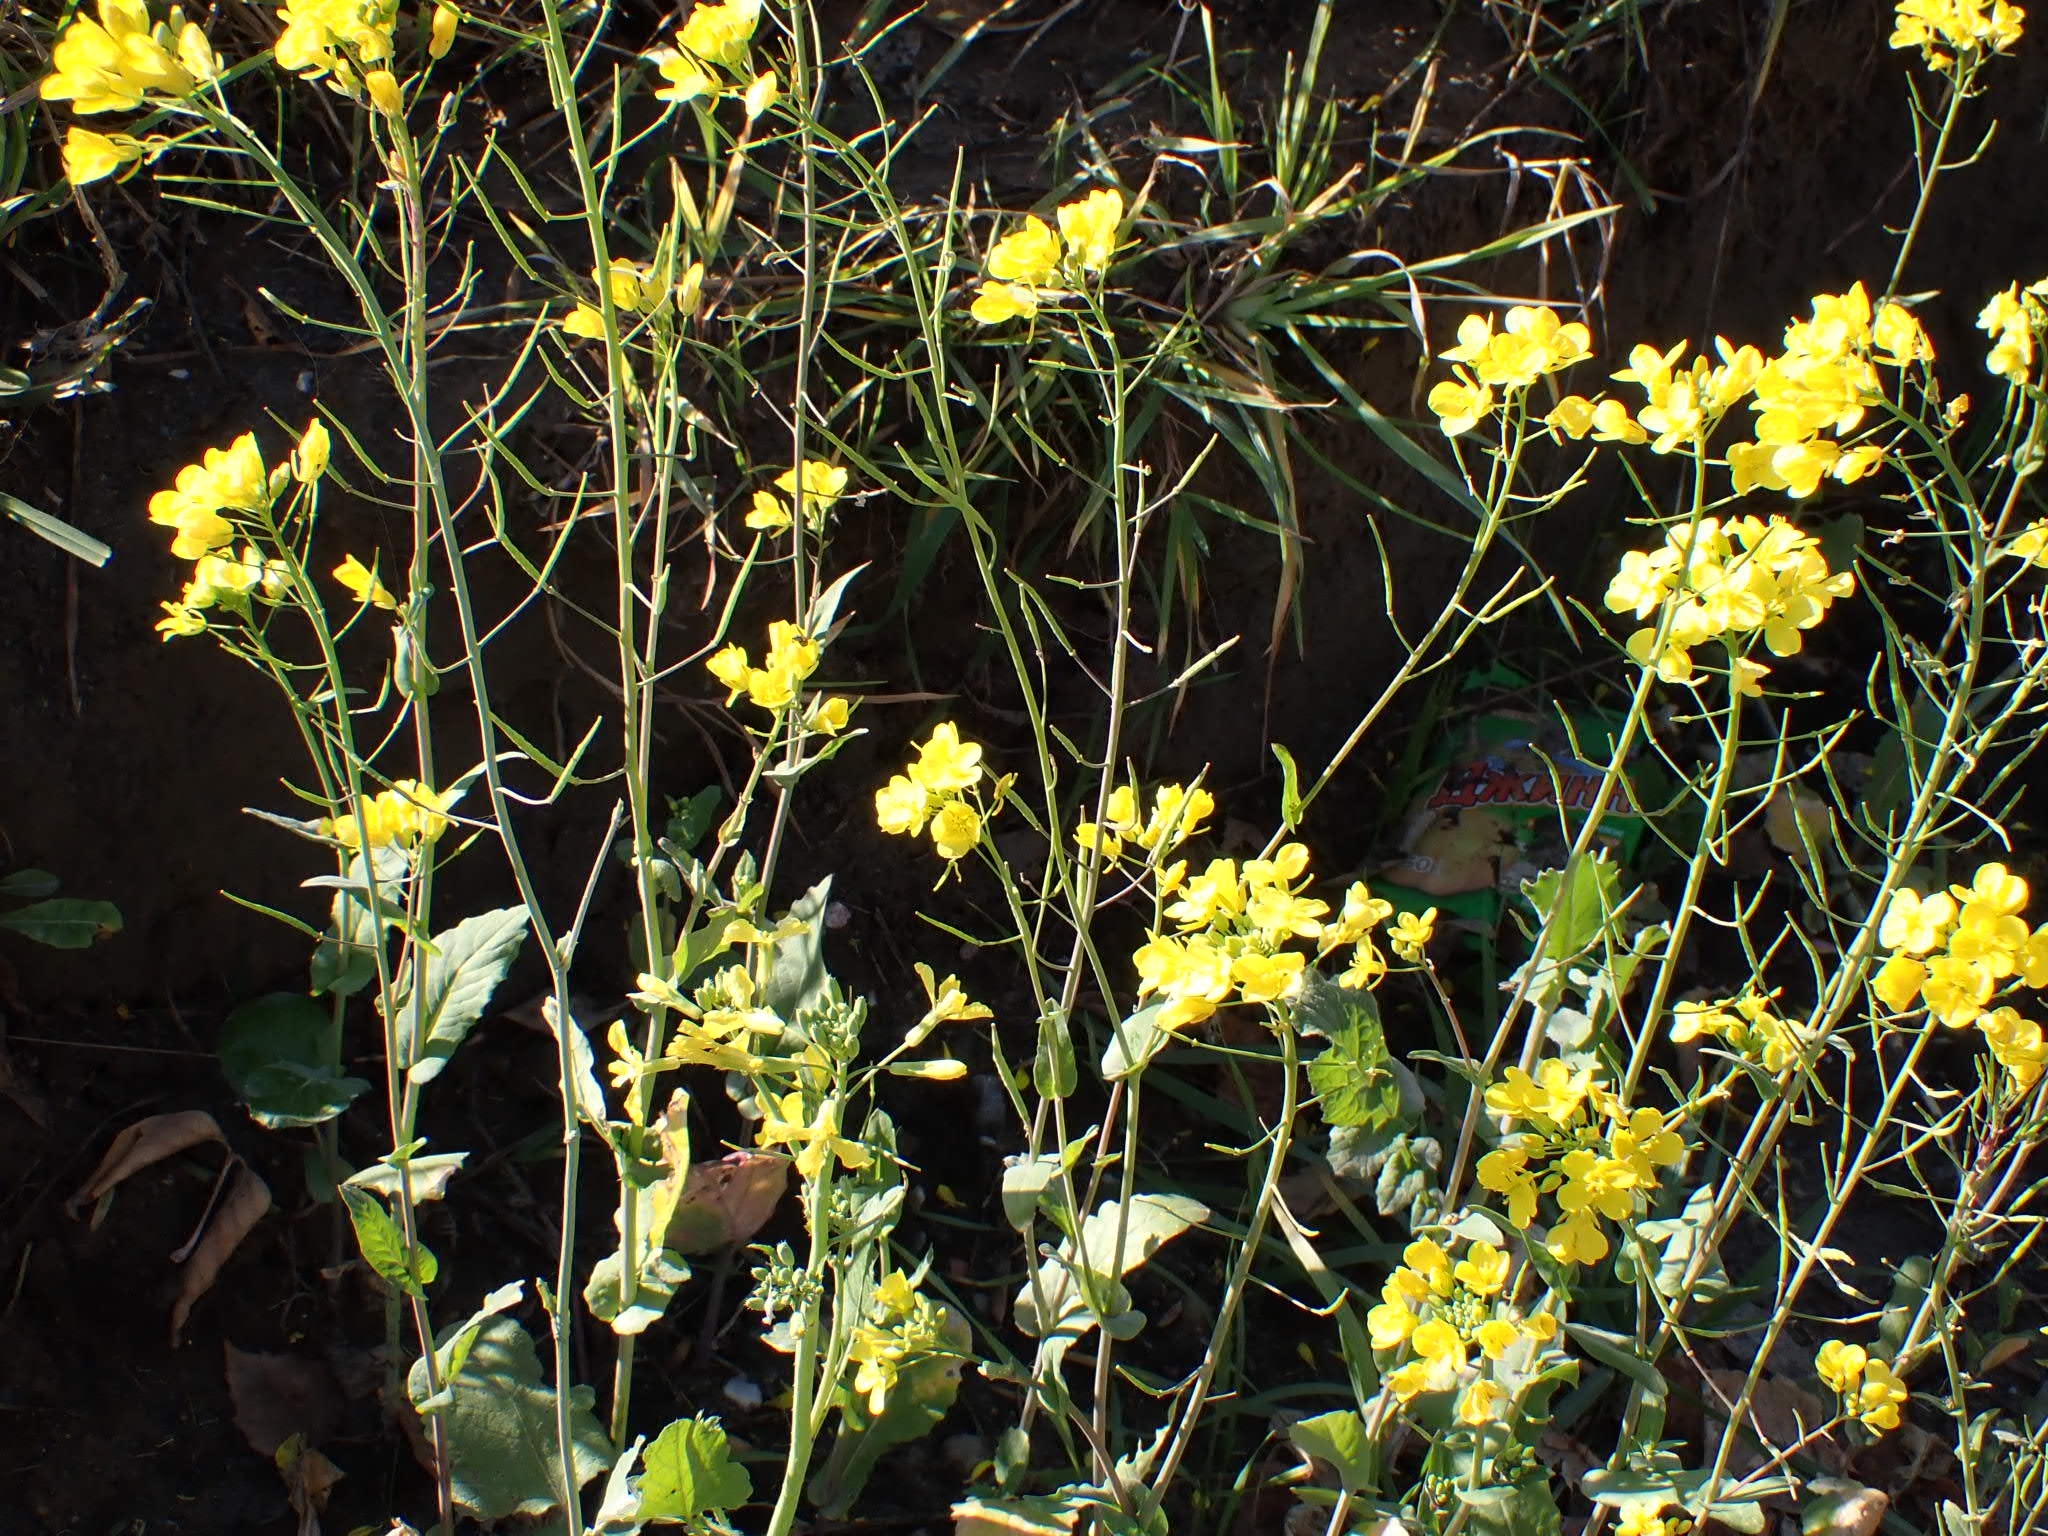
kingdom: Plantae
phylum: Tracheophyta
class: Magnoliopsida
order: Brassicales
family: Brassicaceae
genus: Brassica
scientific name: Brassica rapa
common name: Field mustard
